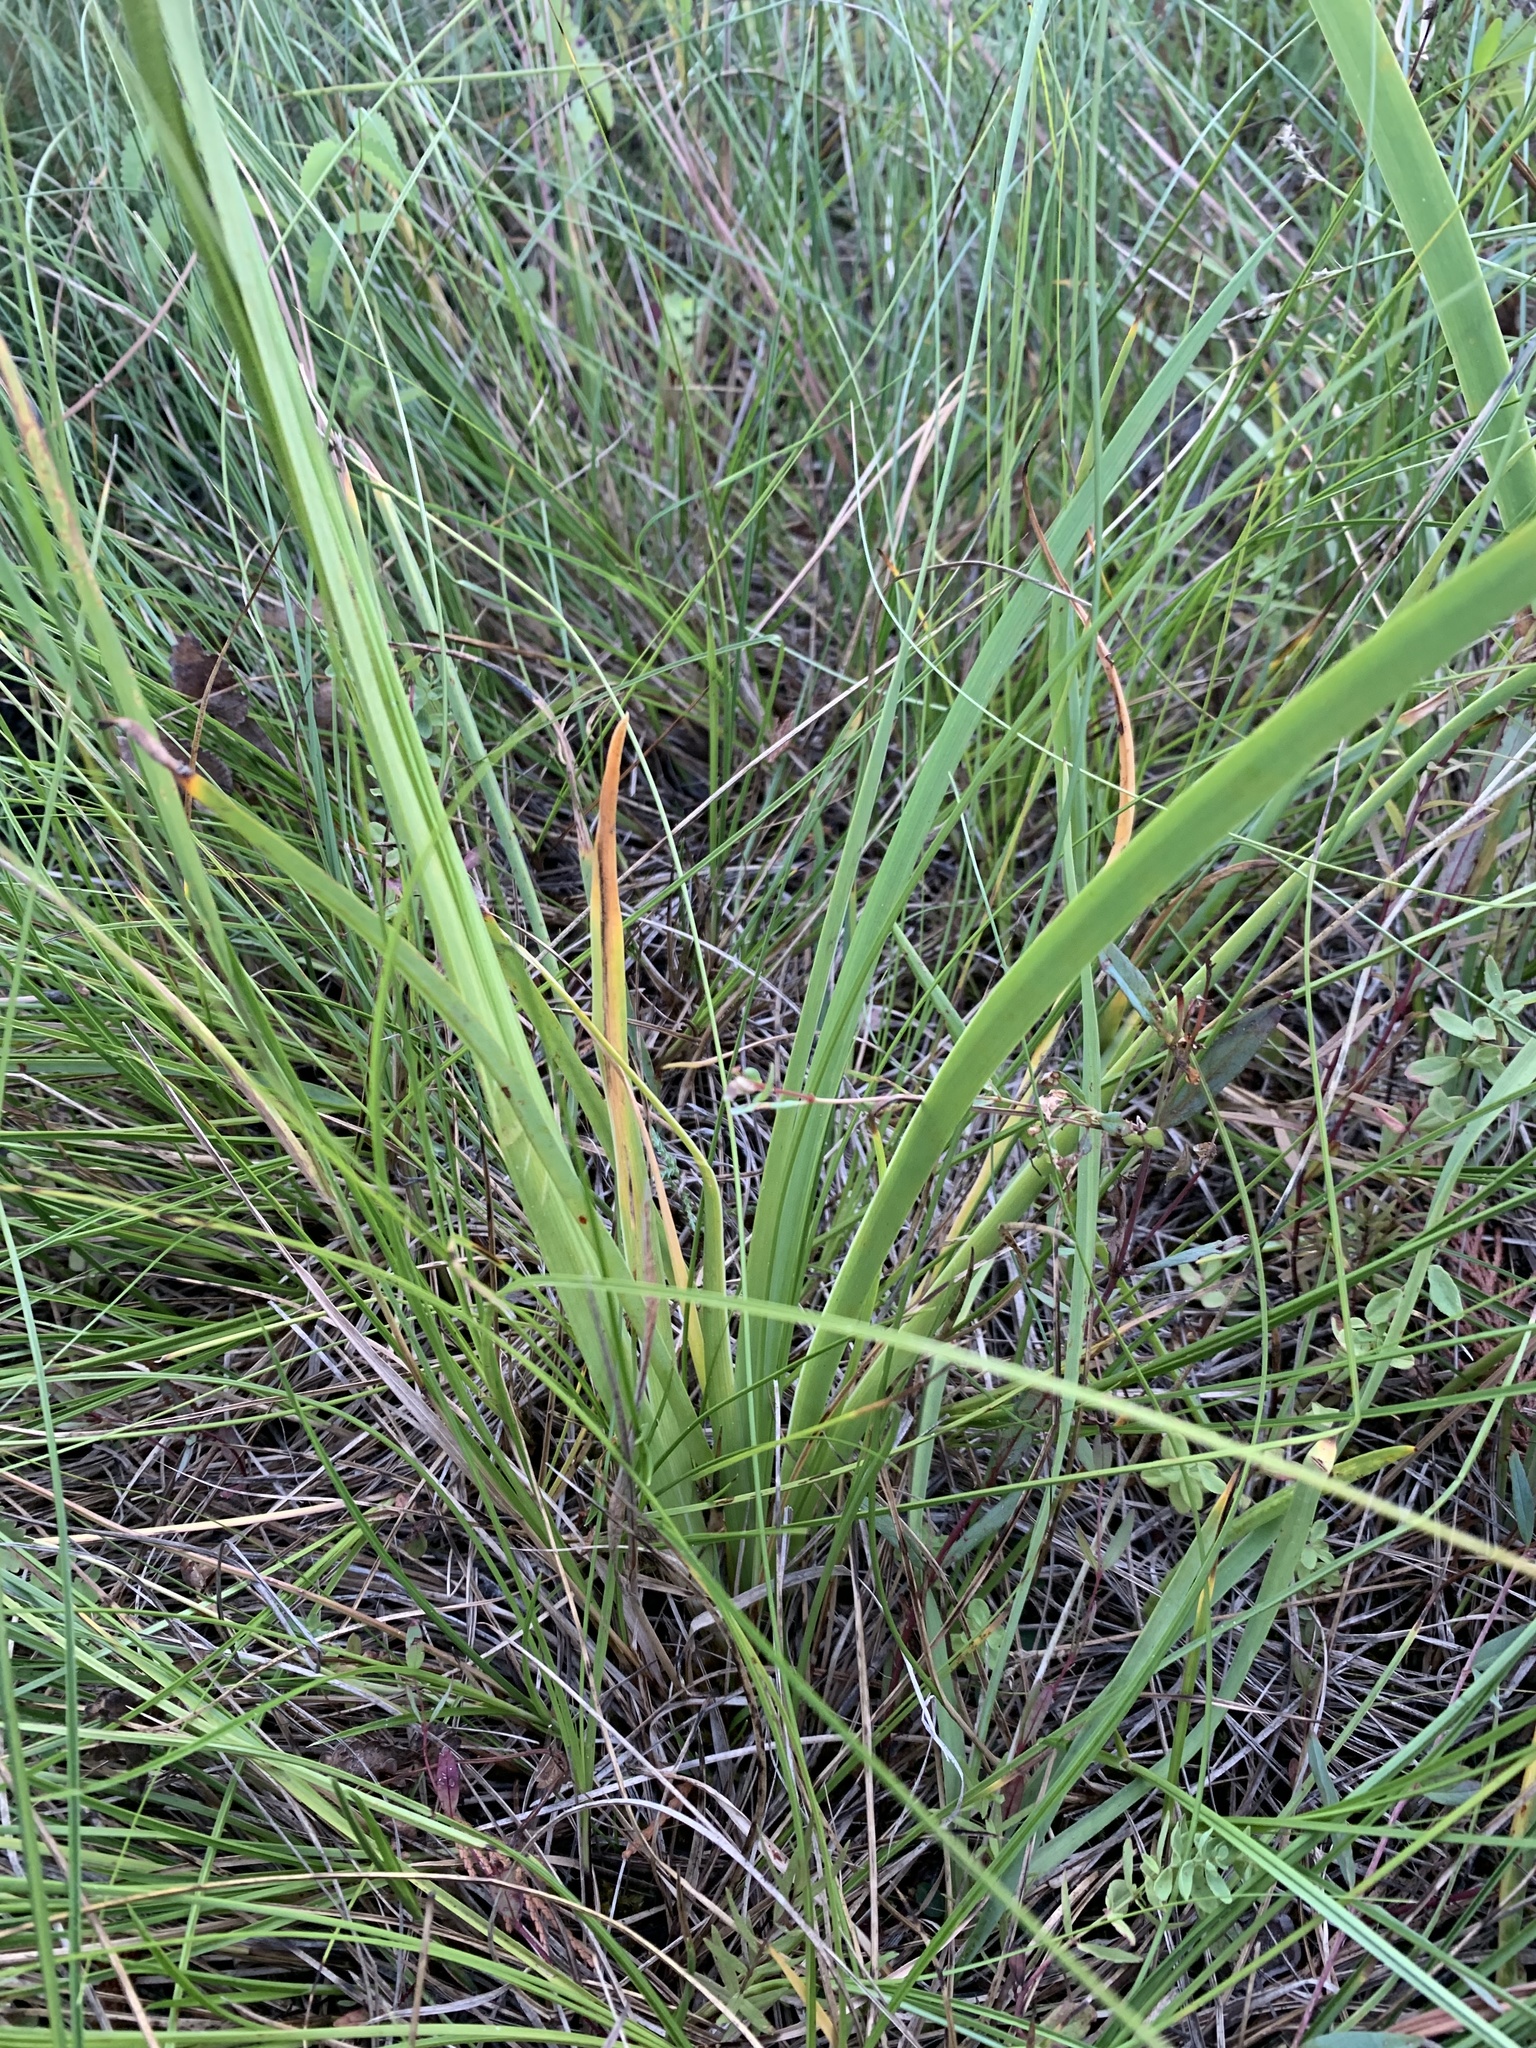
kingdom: Plantae
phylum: Tracheophyta
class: Liliopsida
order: Alismatales
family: Tofieldiaceae
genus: Triantha
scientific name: Triantha occidentalis
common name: Western false asphodel
